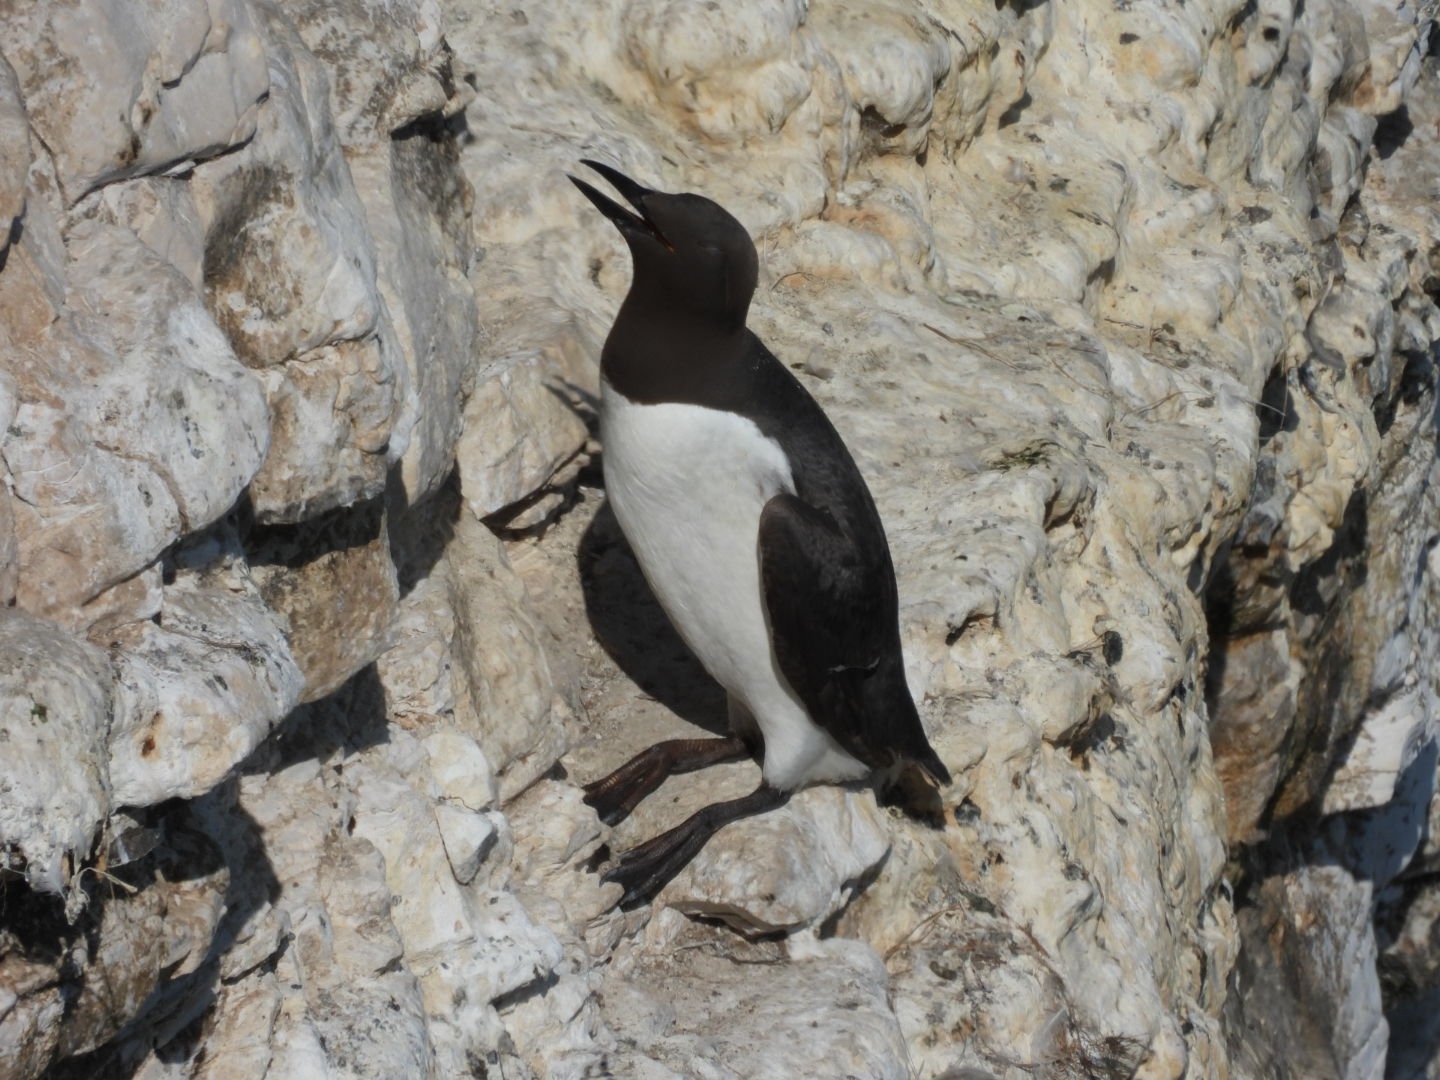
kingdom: Animalia
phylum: Chordata
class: Aves
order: Charadriiformes
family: Alcidae
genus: Uria
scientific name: Uria aalge
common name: Common murre
